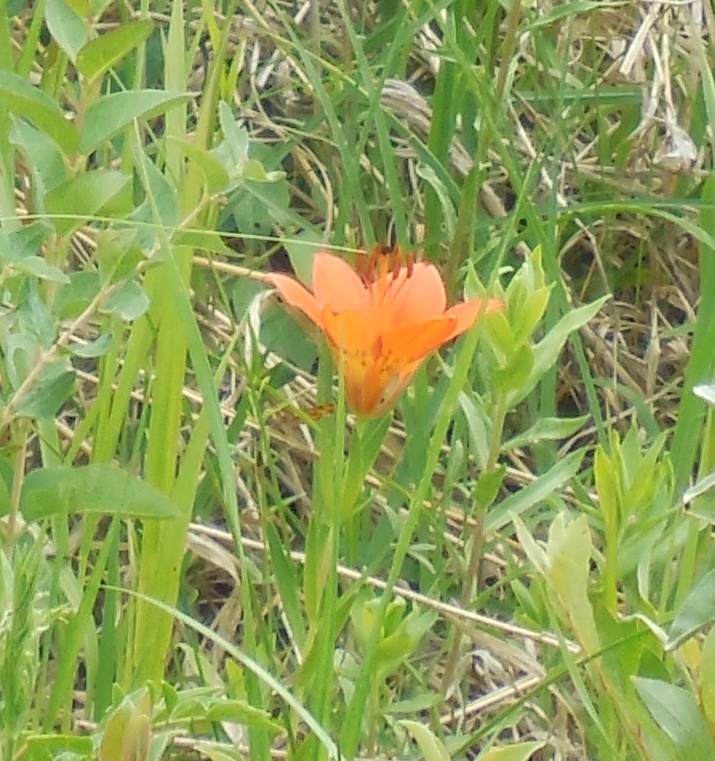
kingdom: Plantae
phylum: Tracheophyta
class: Liliopsida
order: Liliales
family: Liliaceae
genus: Lilium
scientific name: Lilium philadelphicum
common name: Red lily
